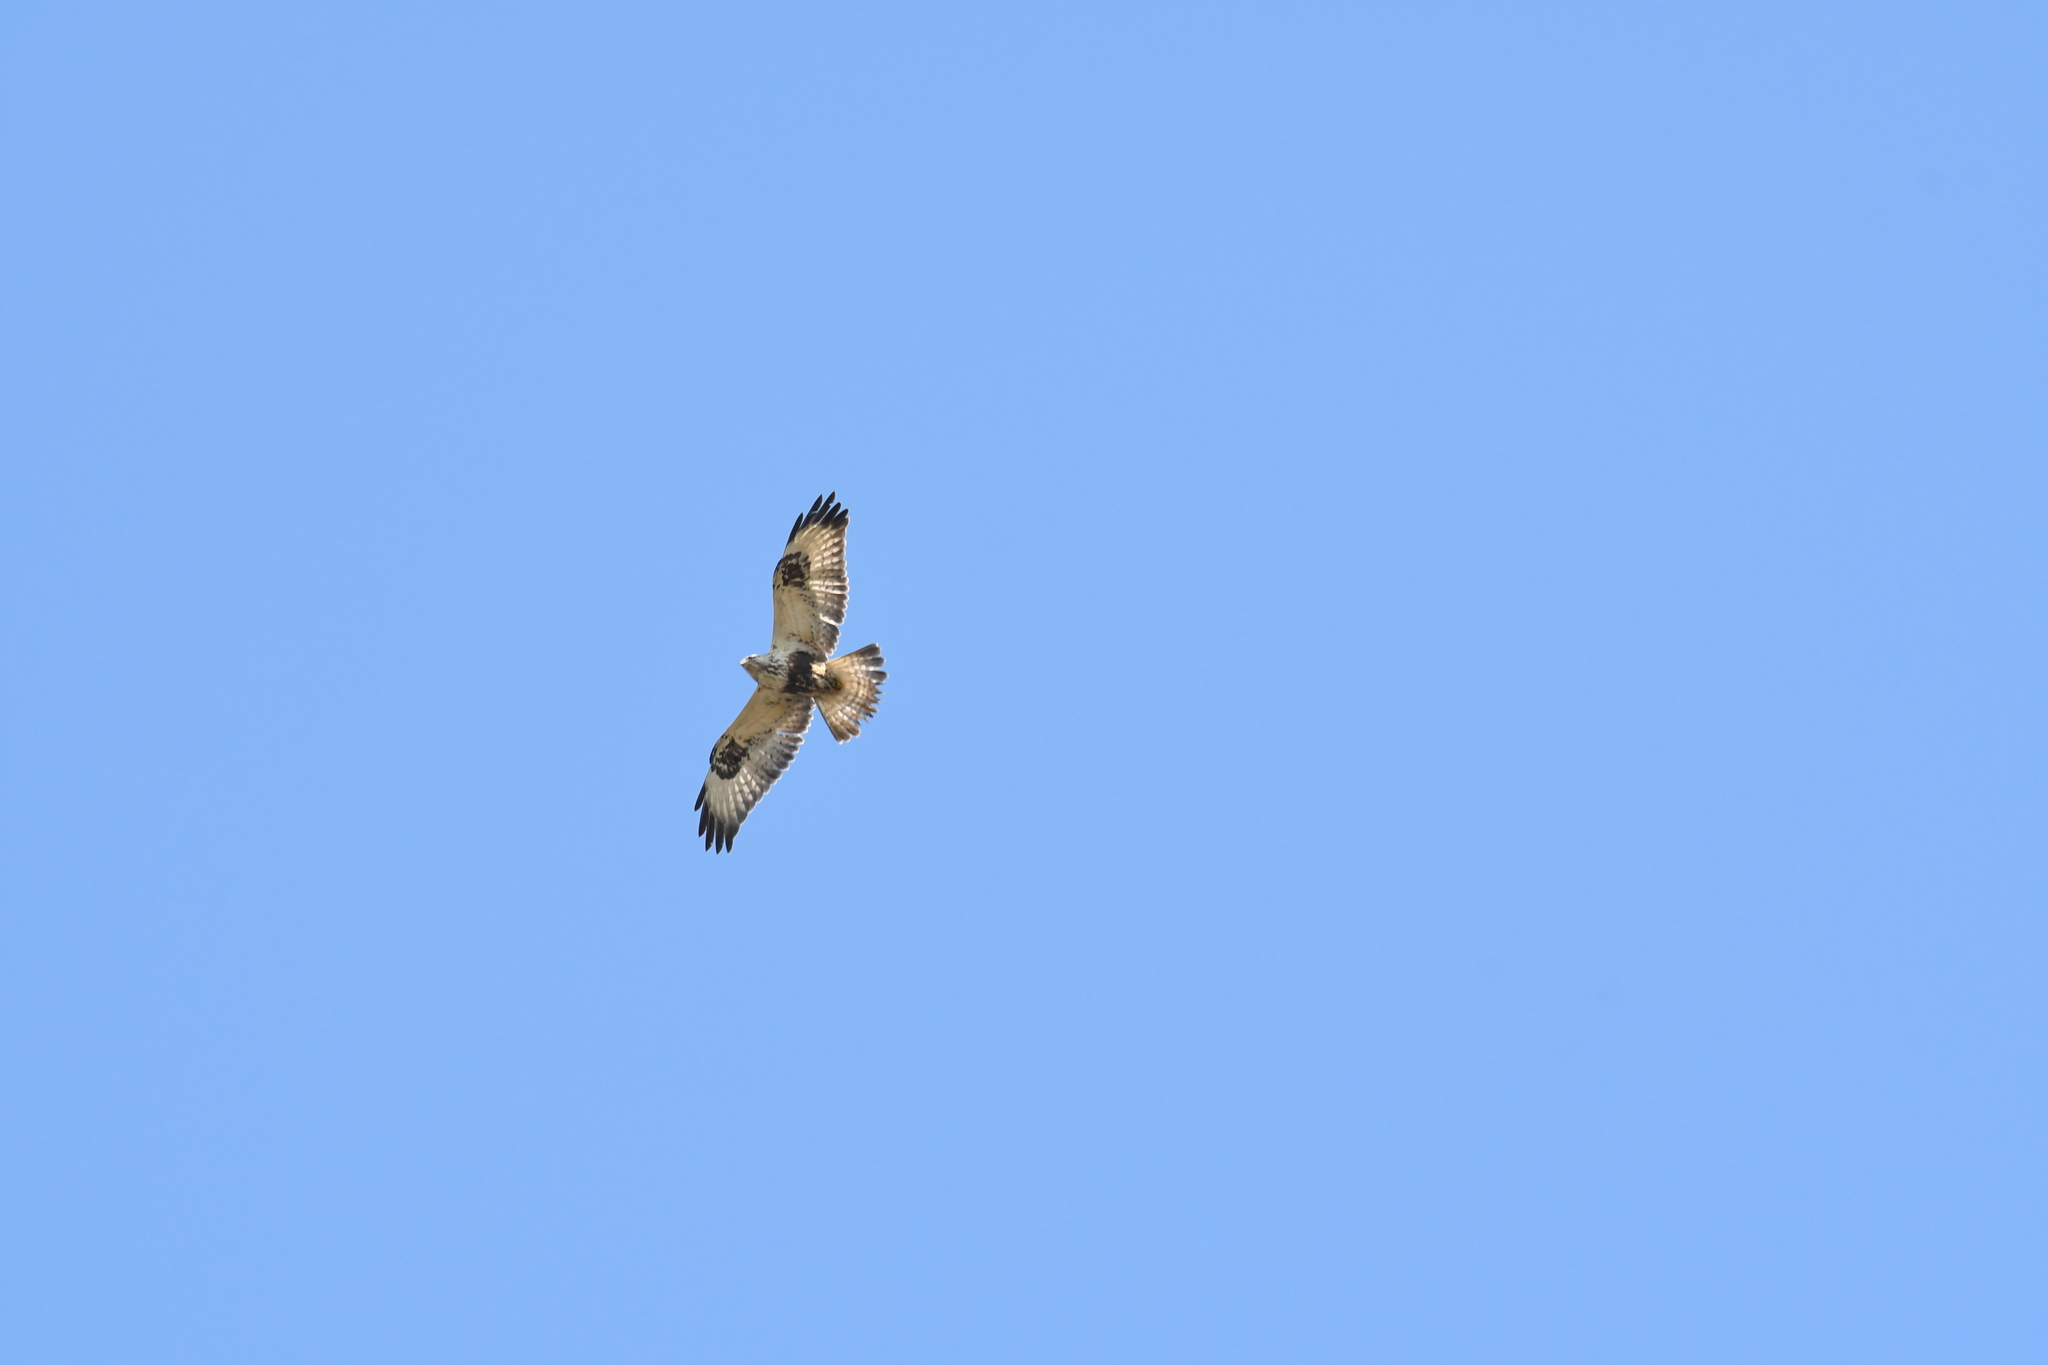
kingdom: Animalia
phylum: Chordata
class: Aves
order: Accipitriformes
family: Accipitridae
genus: Buteo
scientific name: Buteo lagopus
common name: Rough-legged buzzard
